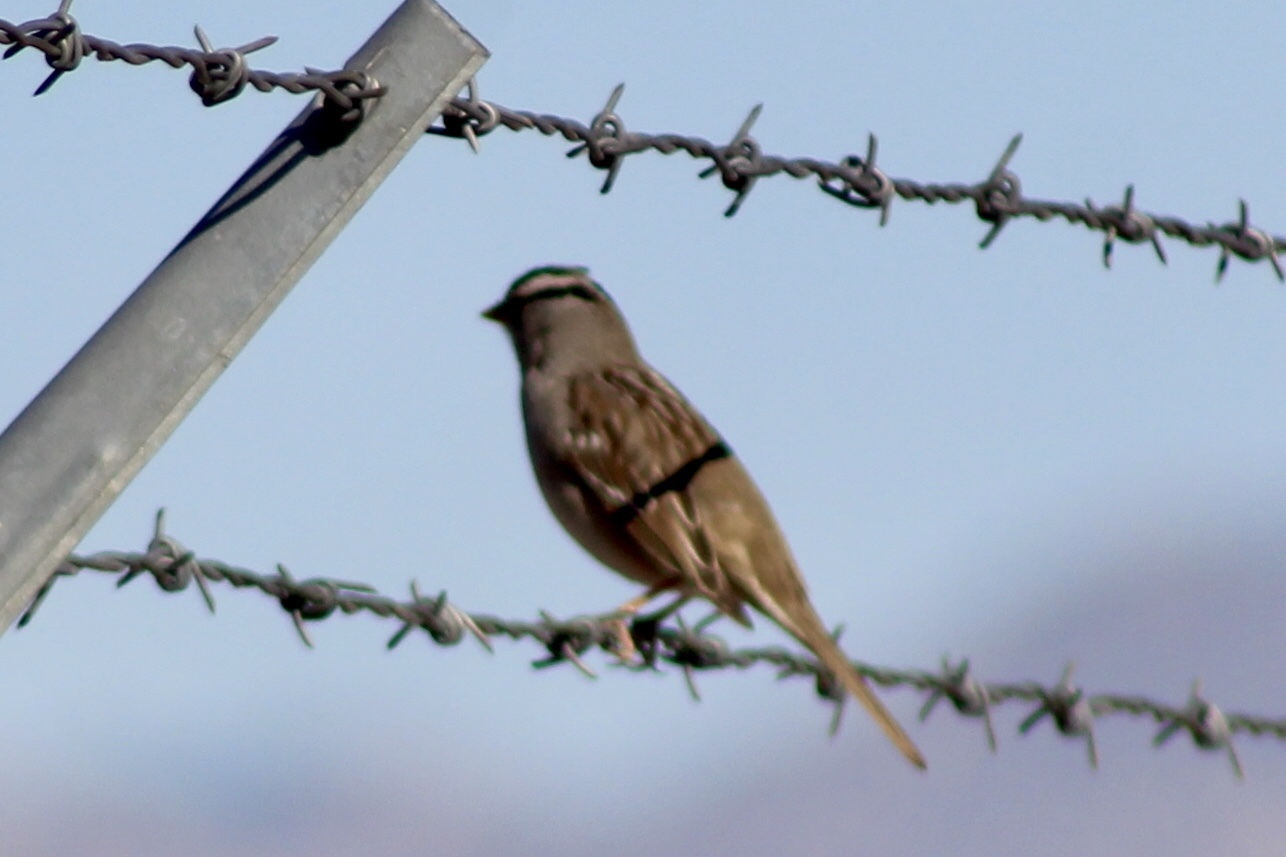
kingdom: Animalia
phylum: Chordata
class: Aves
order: Passeriformes
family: Passerellidae
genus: Zonotrichia
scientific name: Zonotrichia leucophrys
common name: White-crowned sparrow
